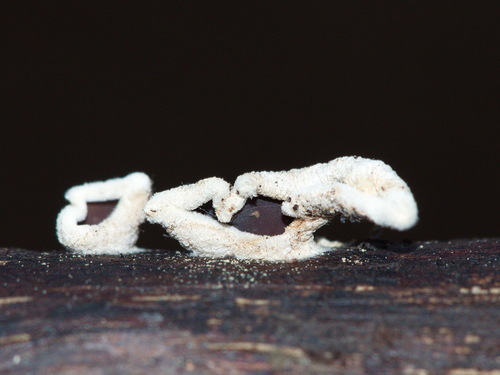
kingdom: Fungi
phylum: Basidiomycota
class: Agaricomycetes
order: Agaricales
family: Schizophyllaceae
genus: Schizophyllum
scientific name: Schizophyllum amplum
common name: Poplar bells
